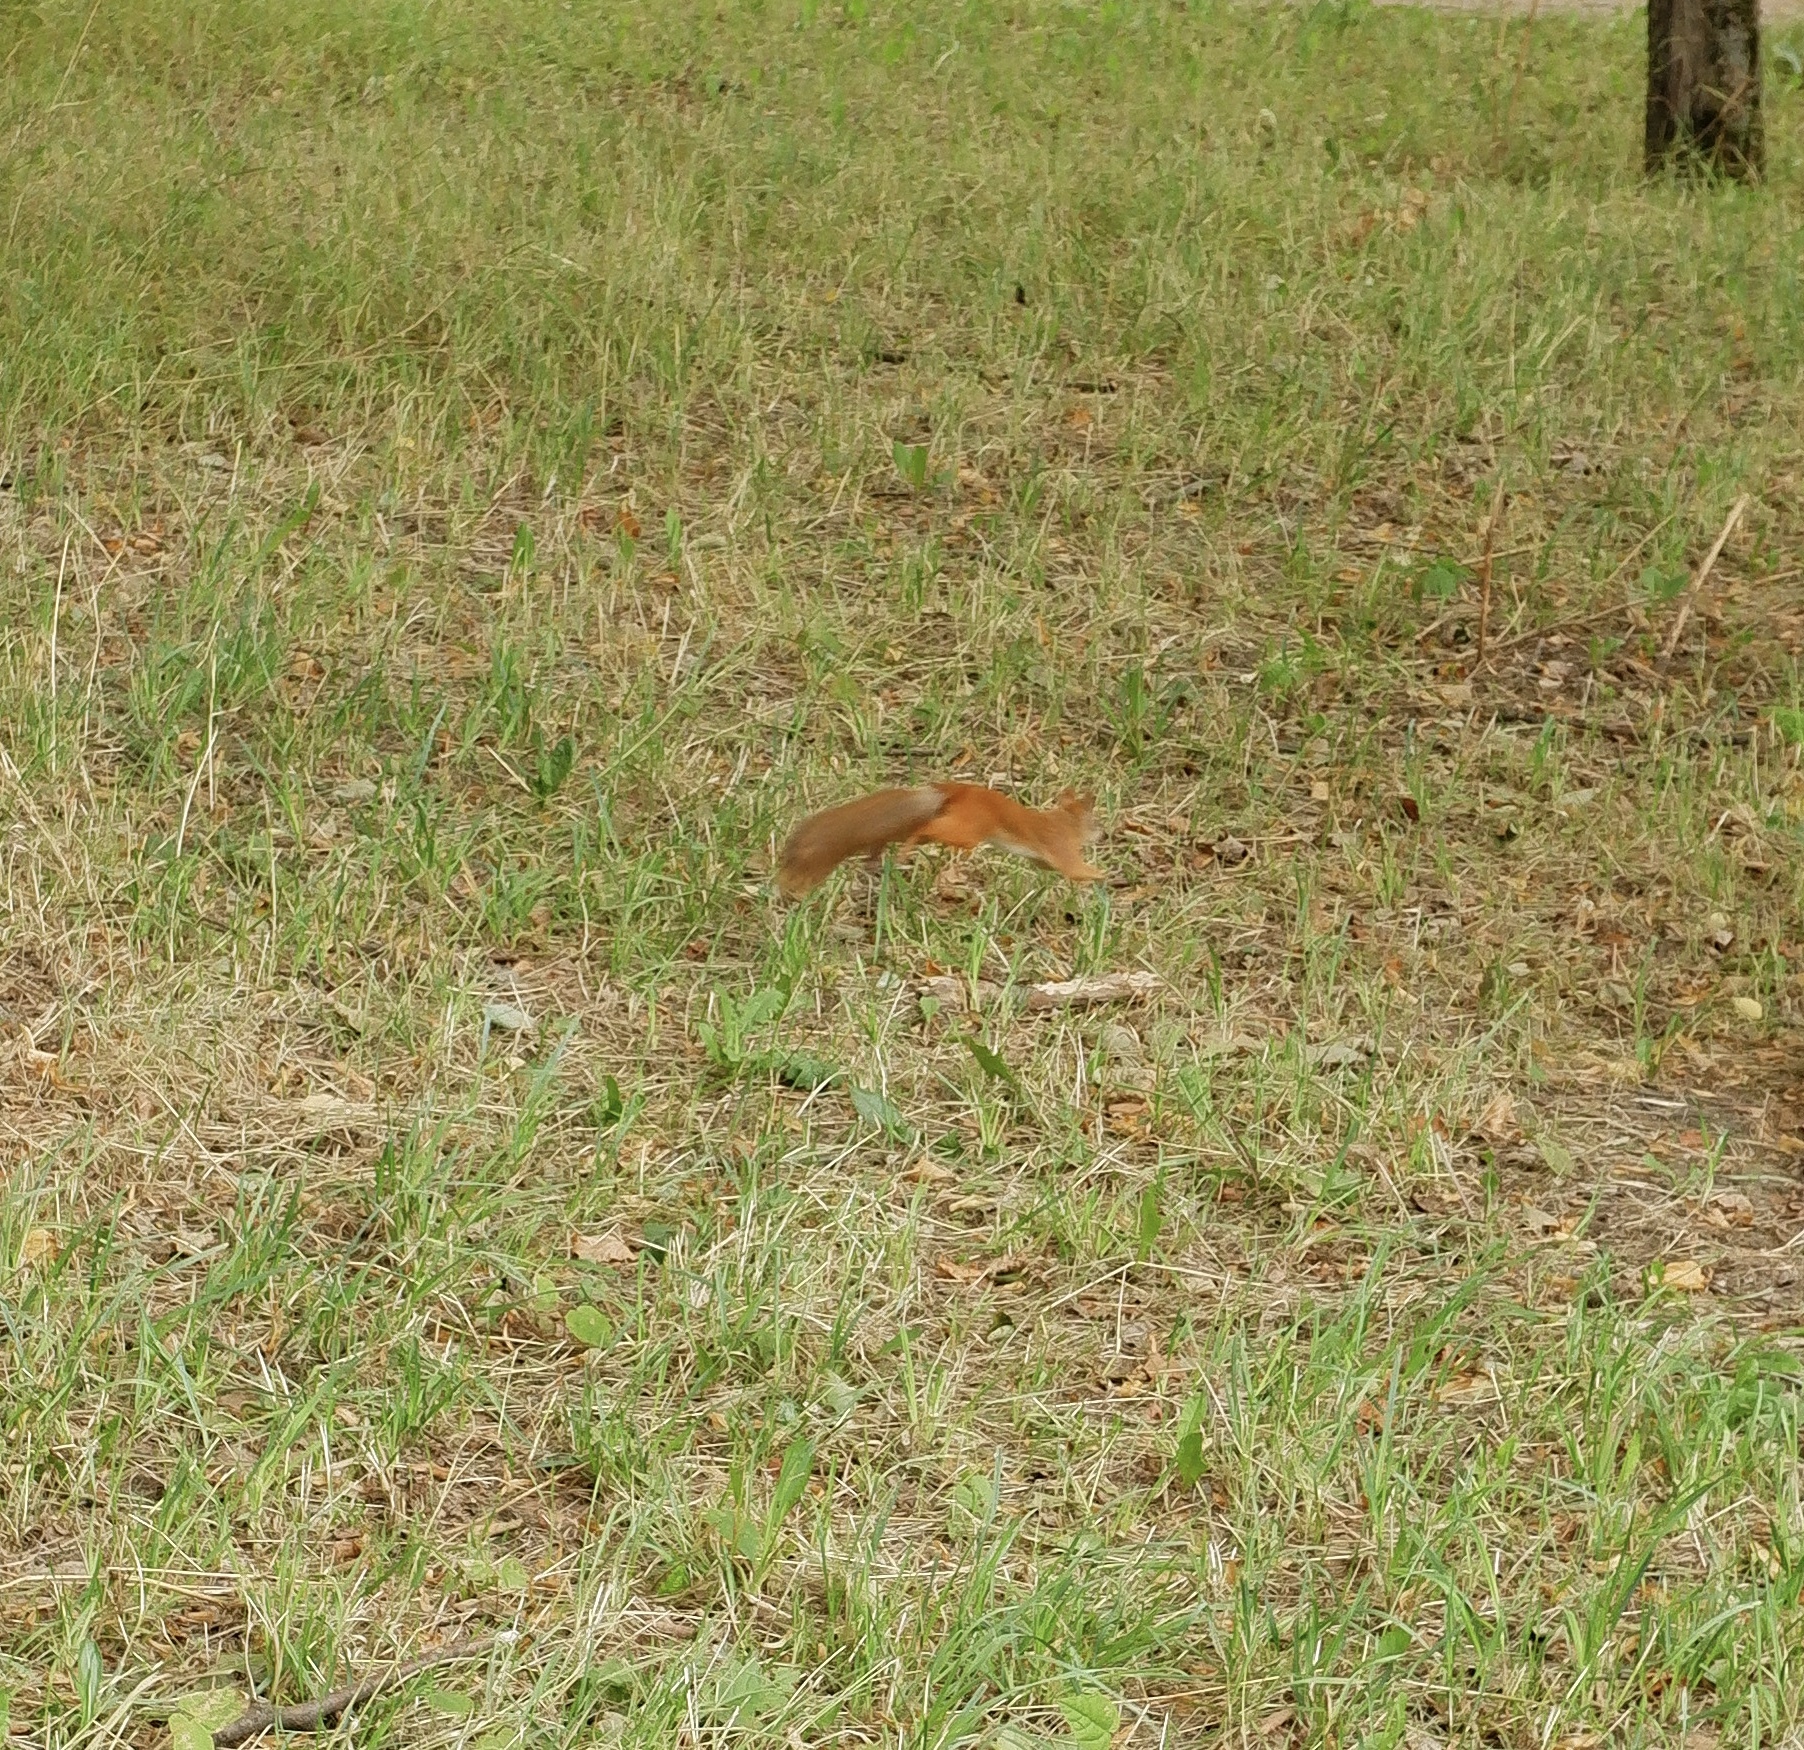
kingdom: Animalia
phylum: Chordata
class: Mammalia
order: Rodentia
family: Sciuridae
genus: Sciurus
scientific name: Sciurus vulgaris
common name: Eurasian red squirrel
